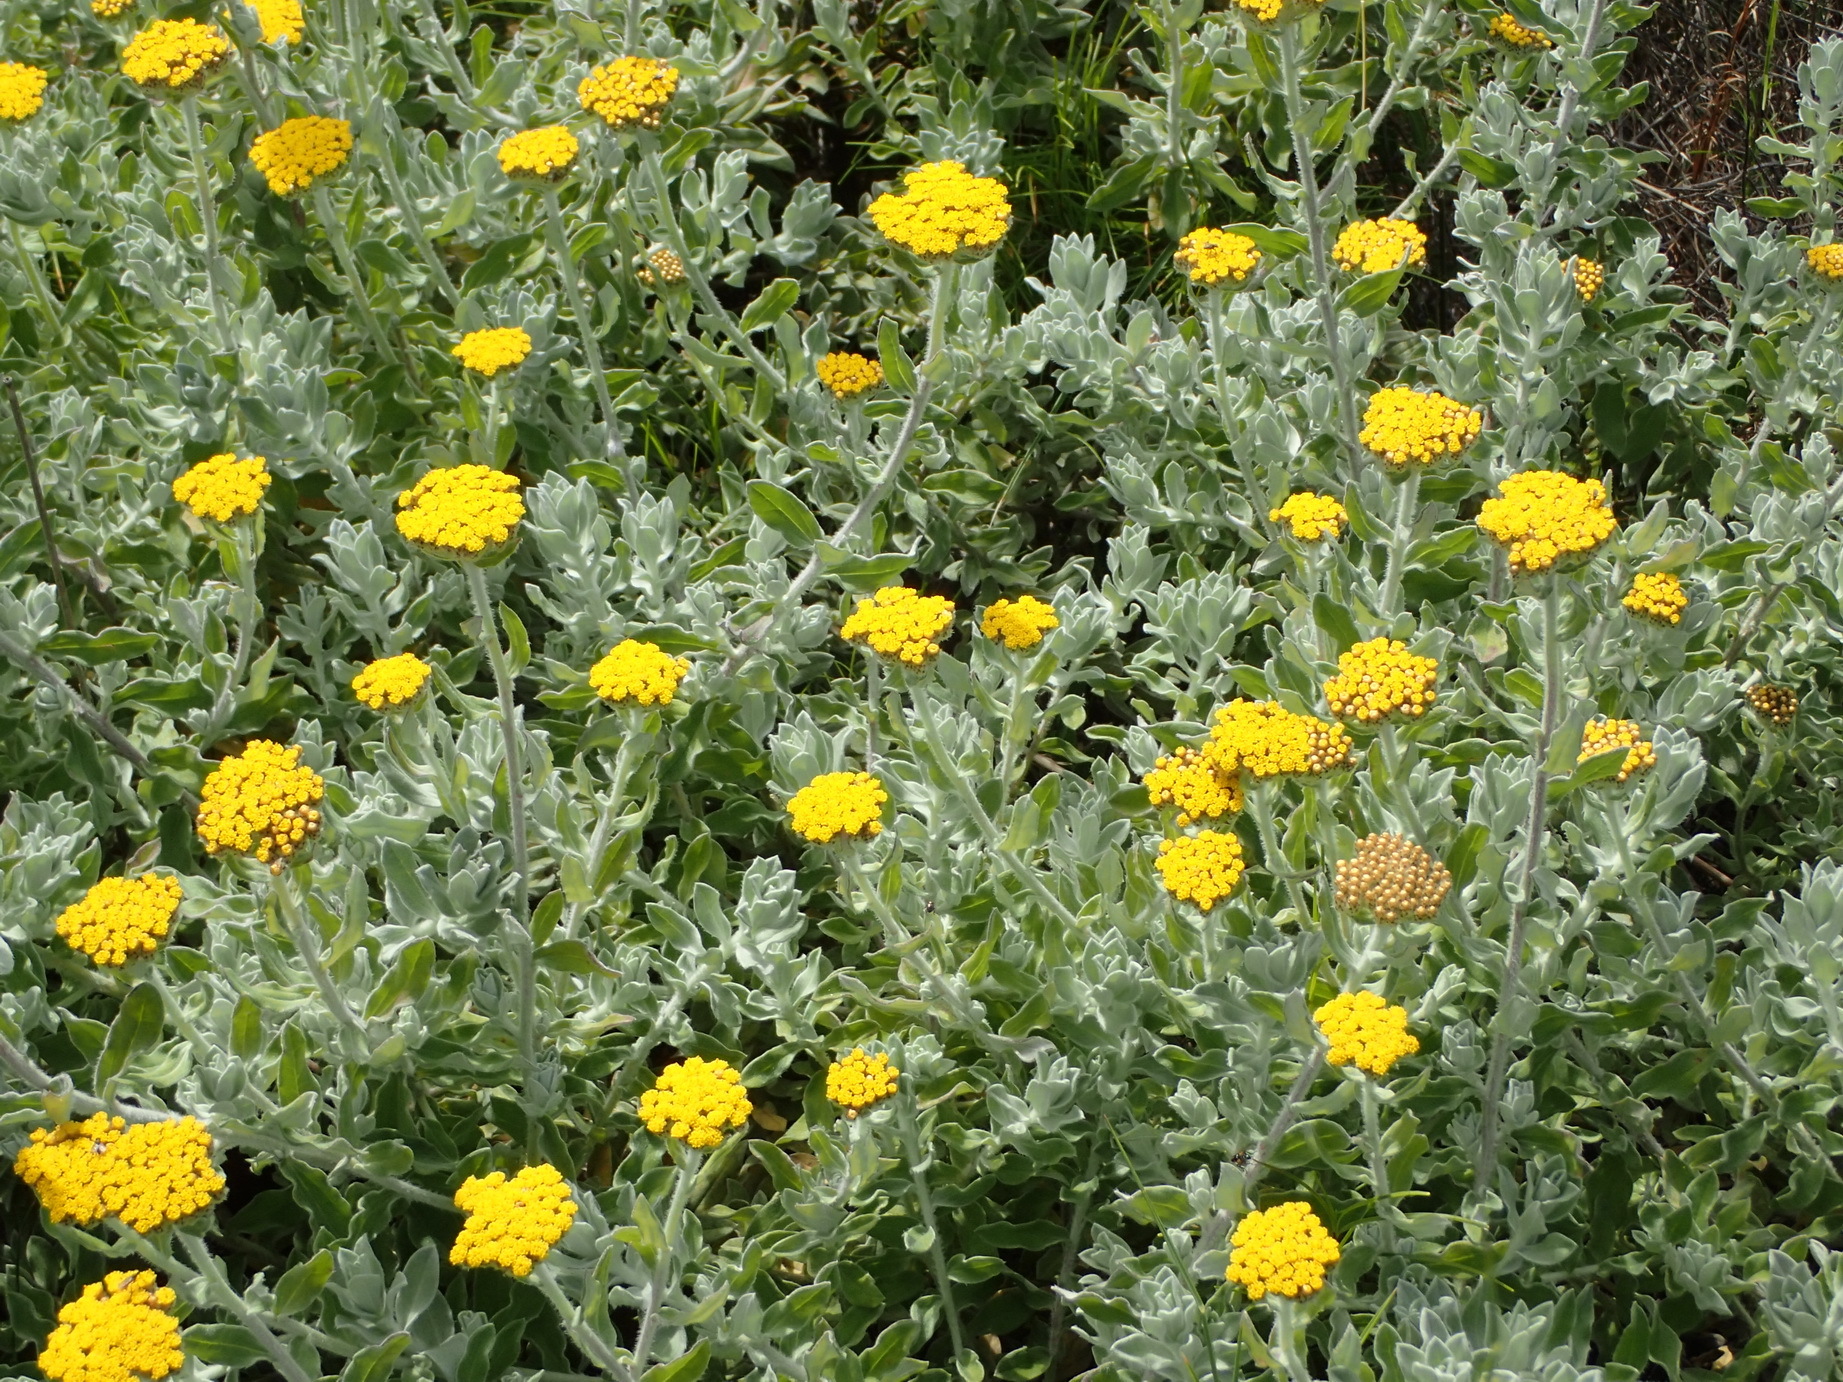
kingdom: Plantae
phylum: Tracheophyta
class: Magnoliopsida
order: Asterales
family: Asteraceae
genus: Helichrysum
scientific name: Helichrysum dasyanthum
